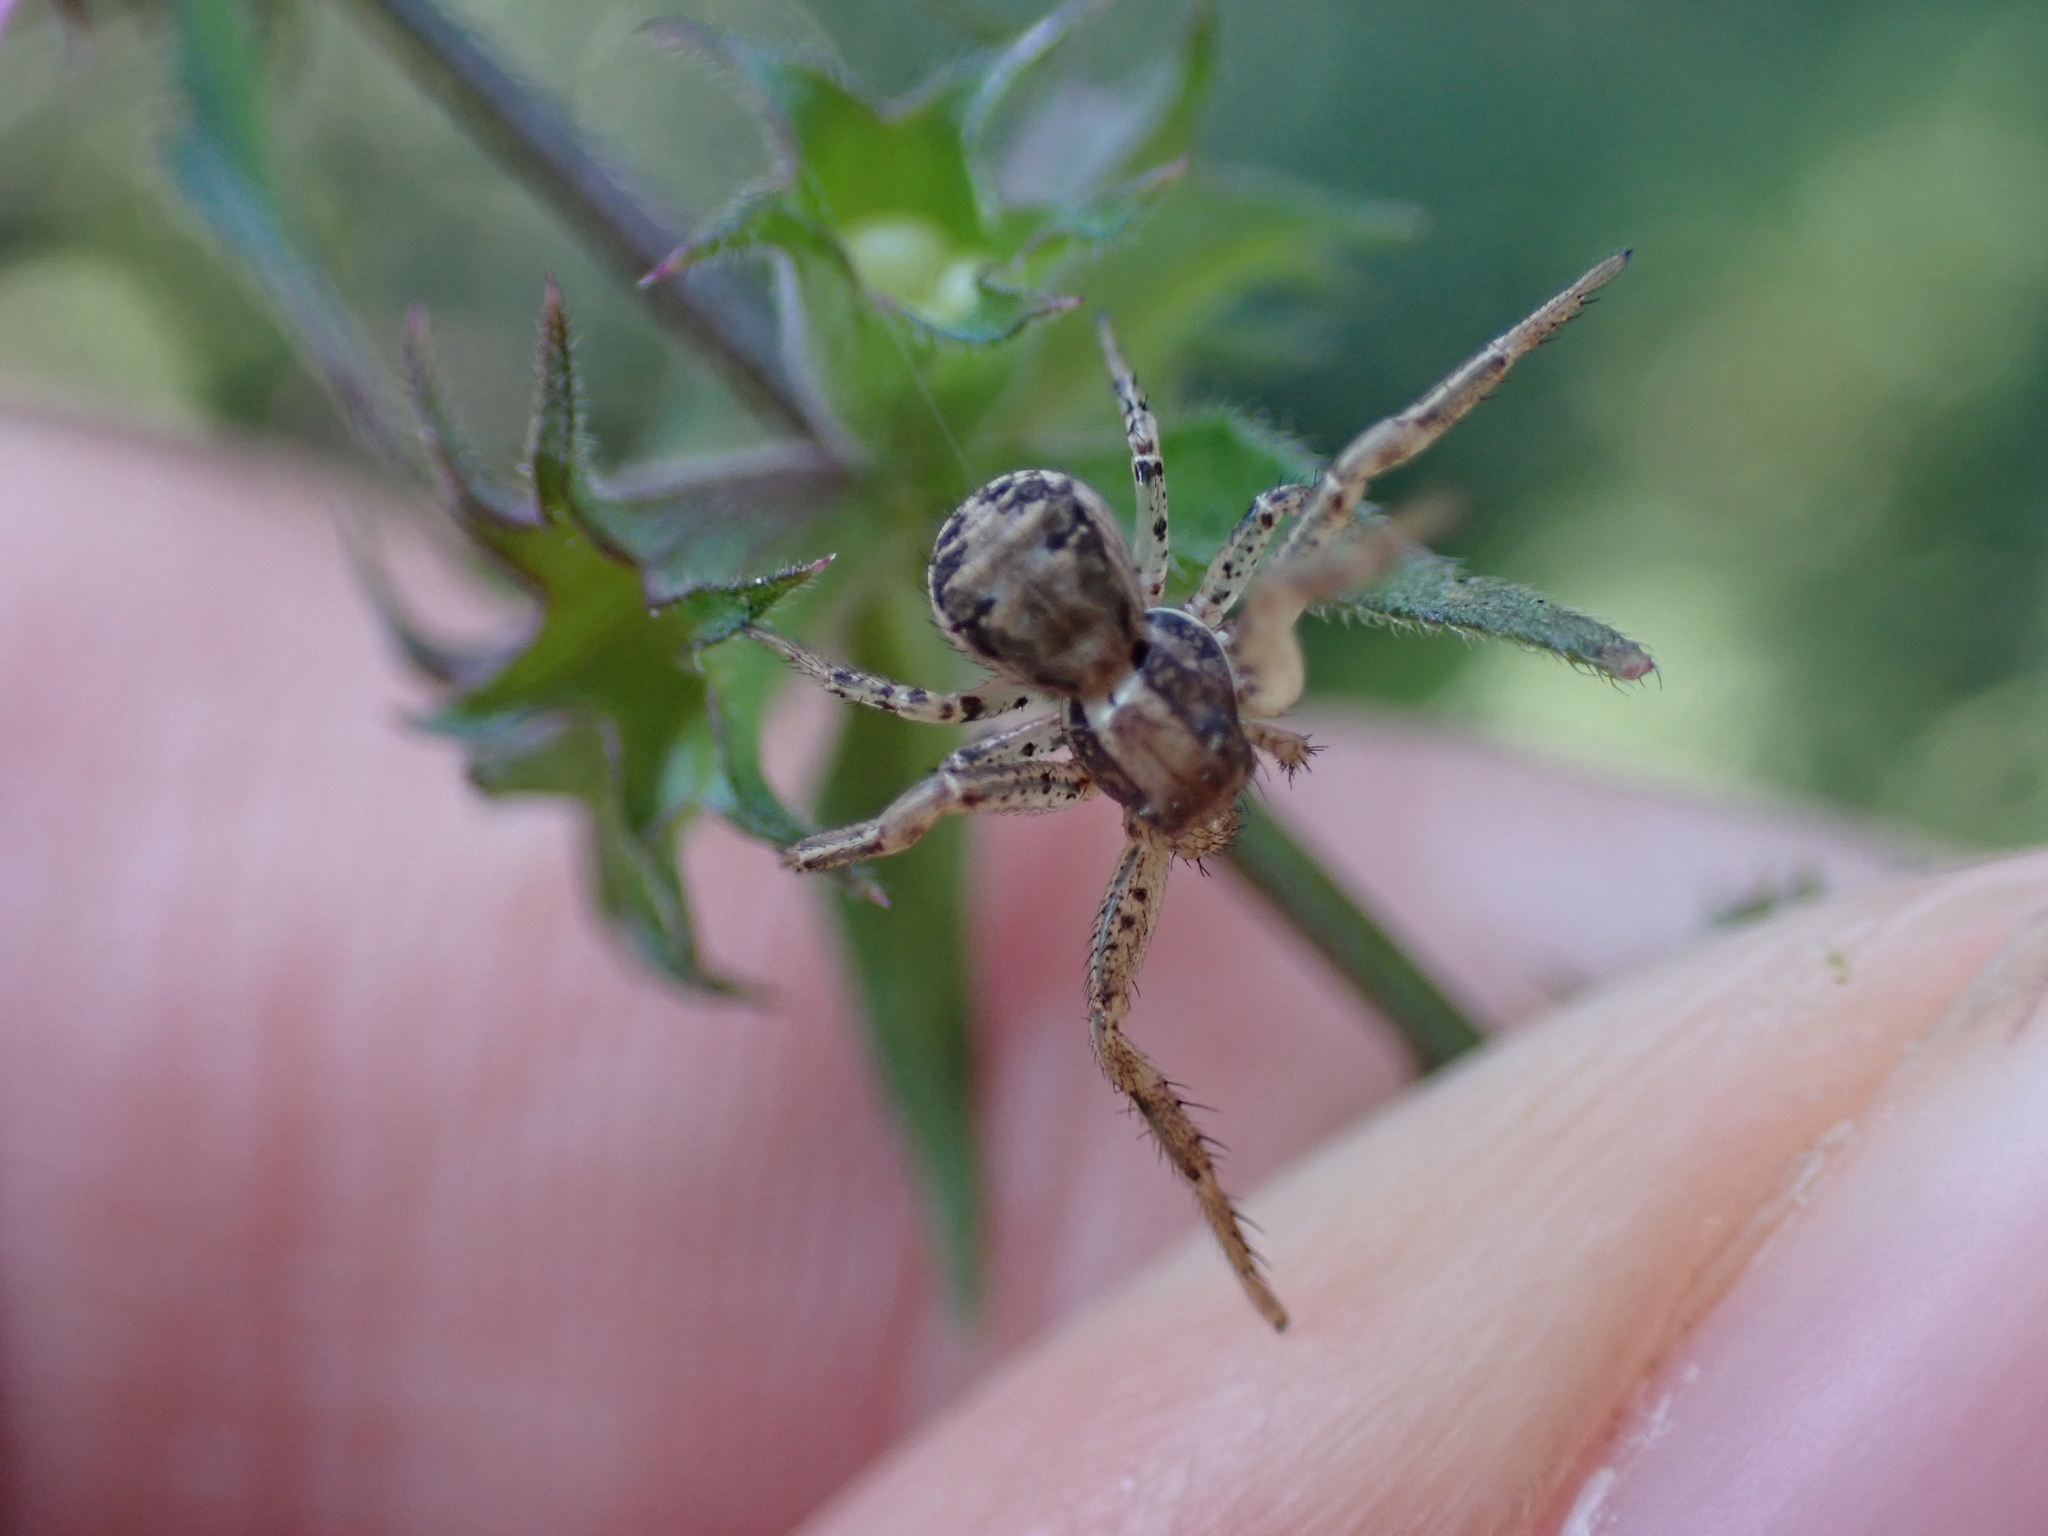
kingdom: Animalia
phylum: Arthropoda
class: Arachnida
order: Araneae
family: Thomisidae
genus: Xysticus
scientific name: Xysticus
